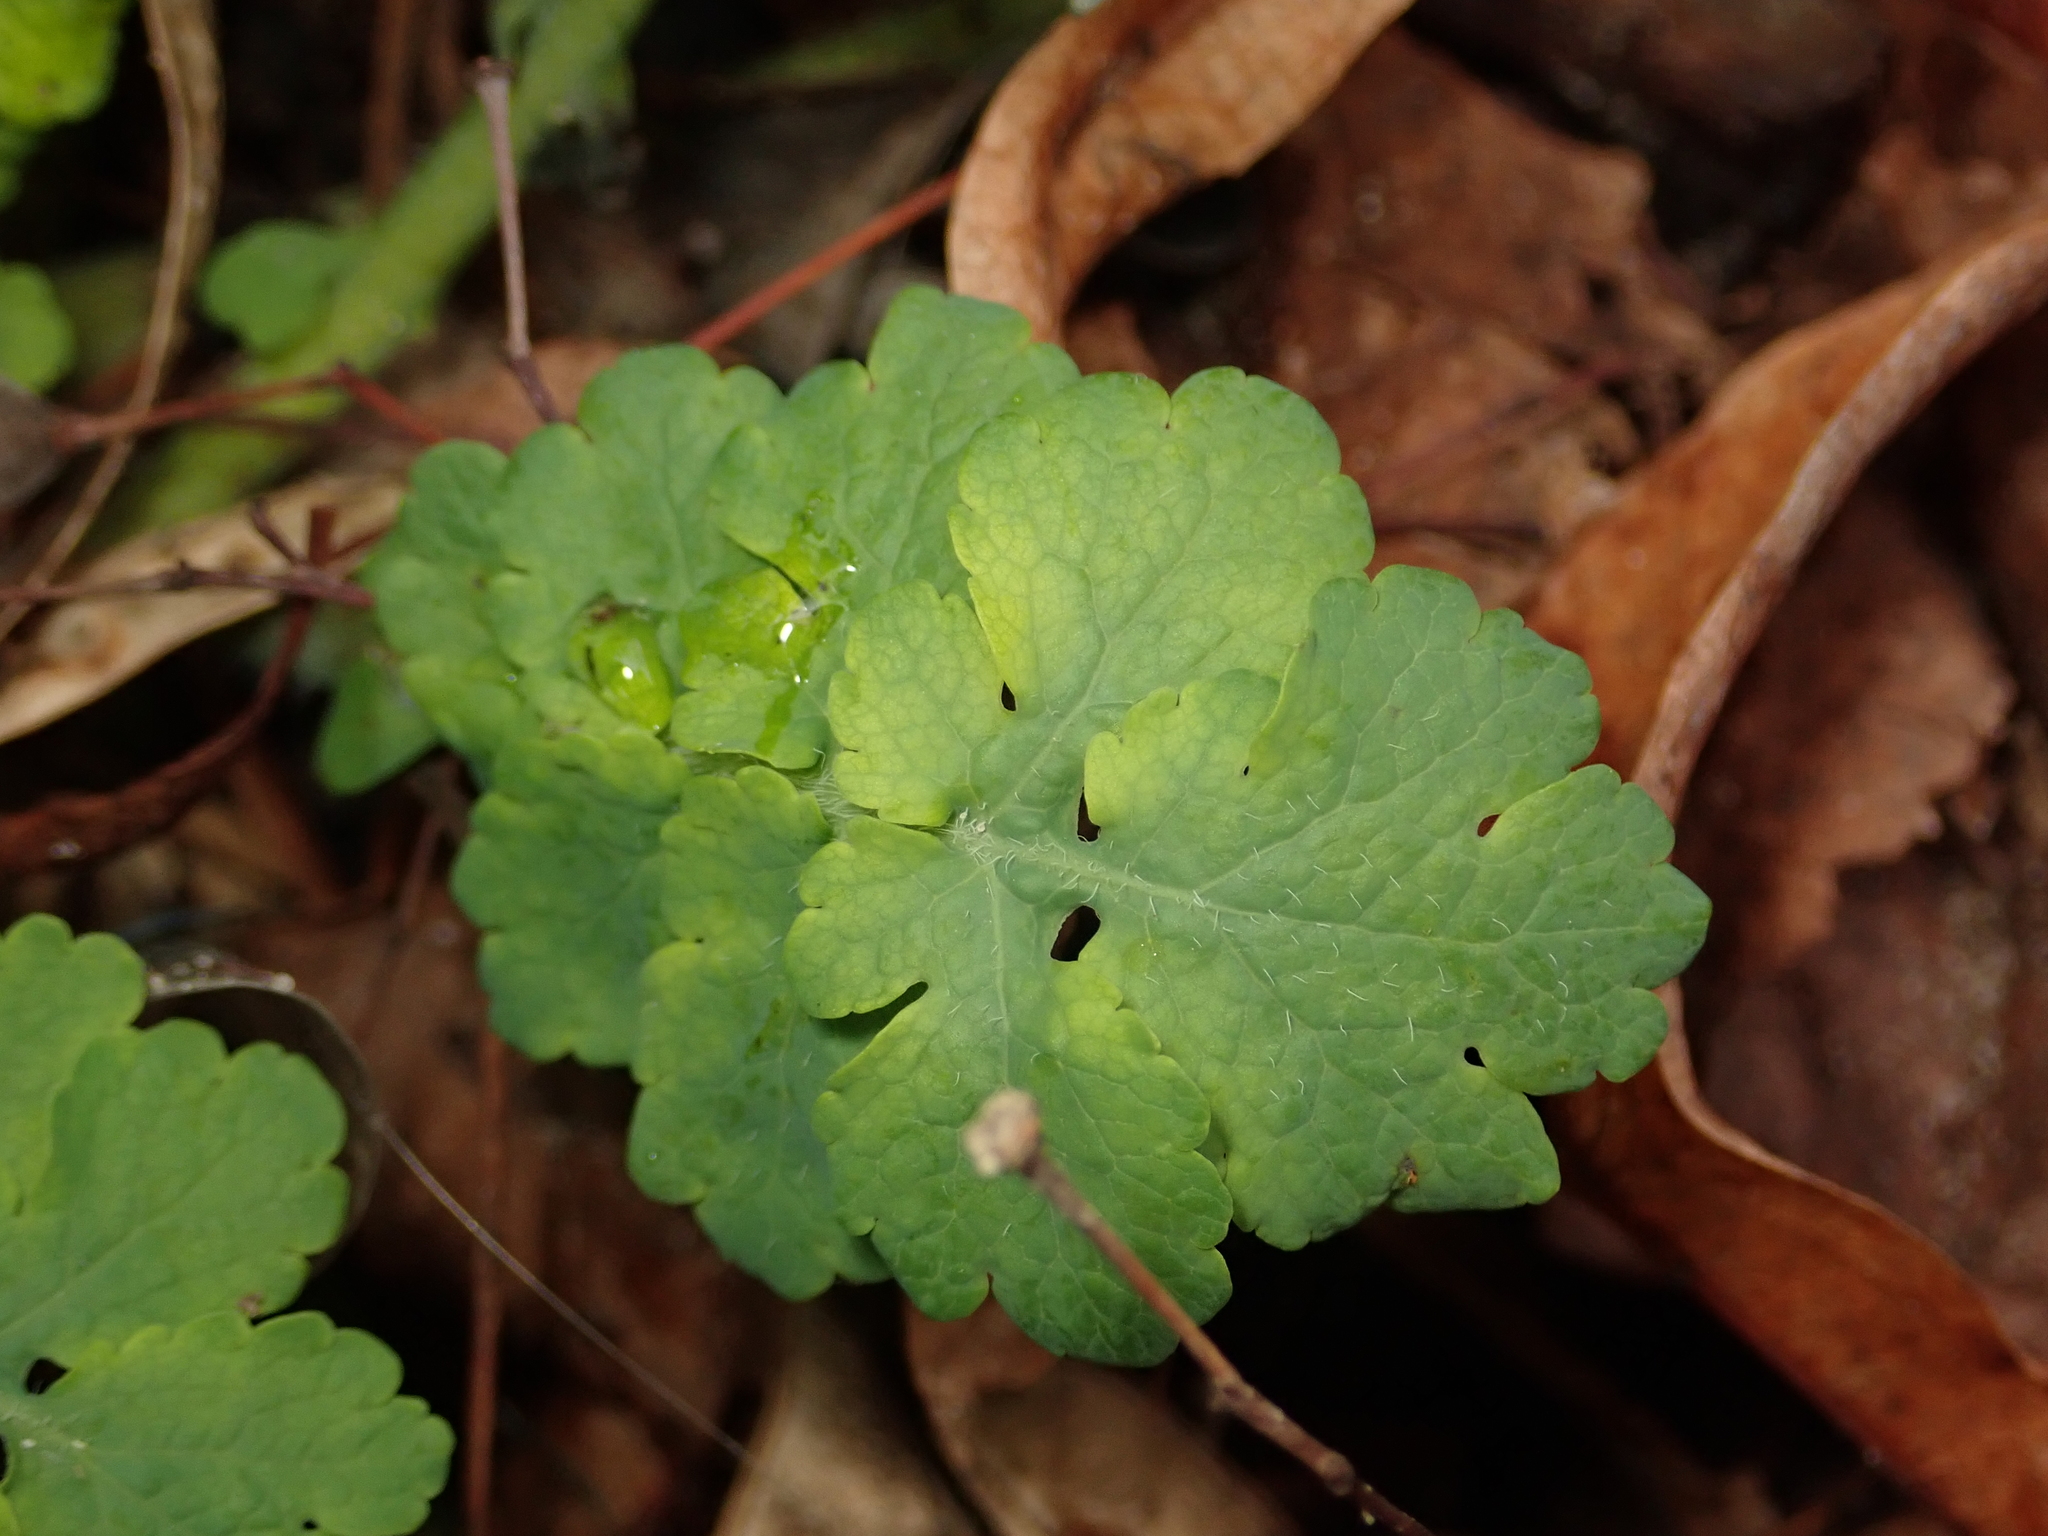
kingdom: Plantae
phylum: Tracheophyta
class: Magnoliopsida
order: Ranunculales
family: Papaveraceae
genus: Chelidonium
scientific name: Chelidonium majus
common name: Greater celandine
